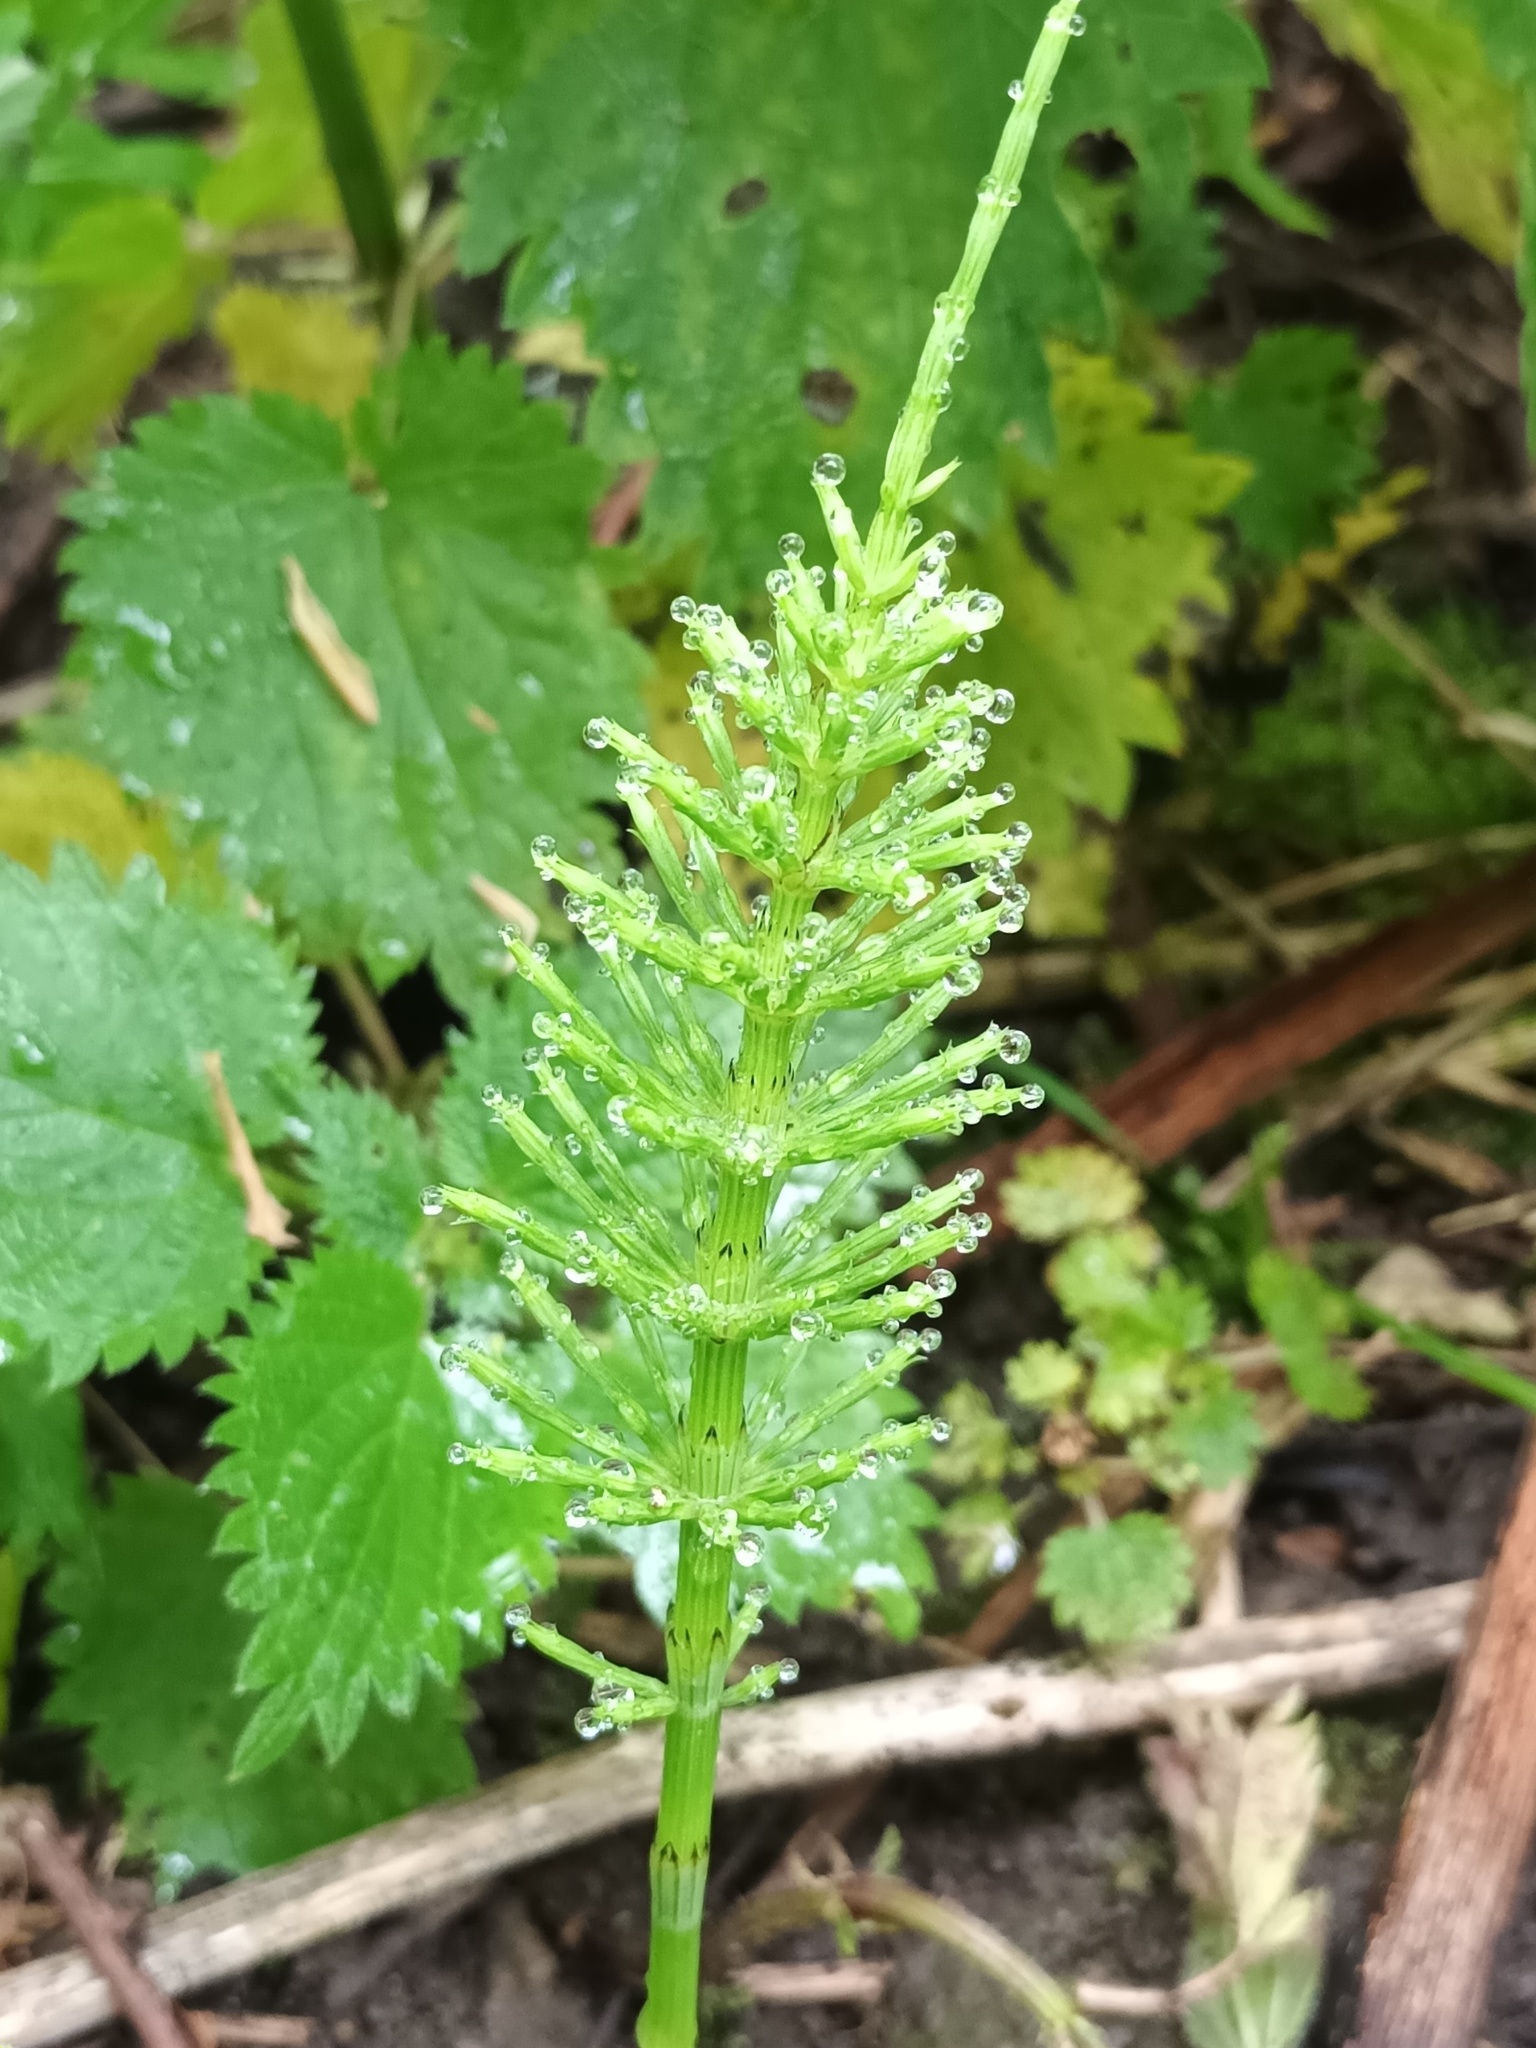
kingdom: Plantae
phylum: Tracheophyta
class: Polypodiopsida
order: Equisetales
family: Equisetaceae
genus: Equisetum
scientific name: Equisetum arvense
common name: Field horsetail
